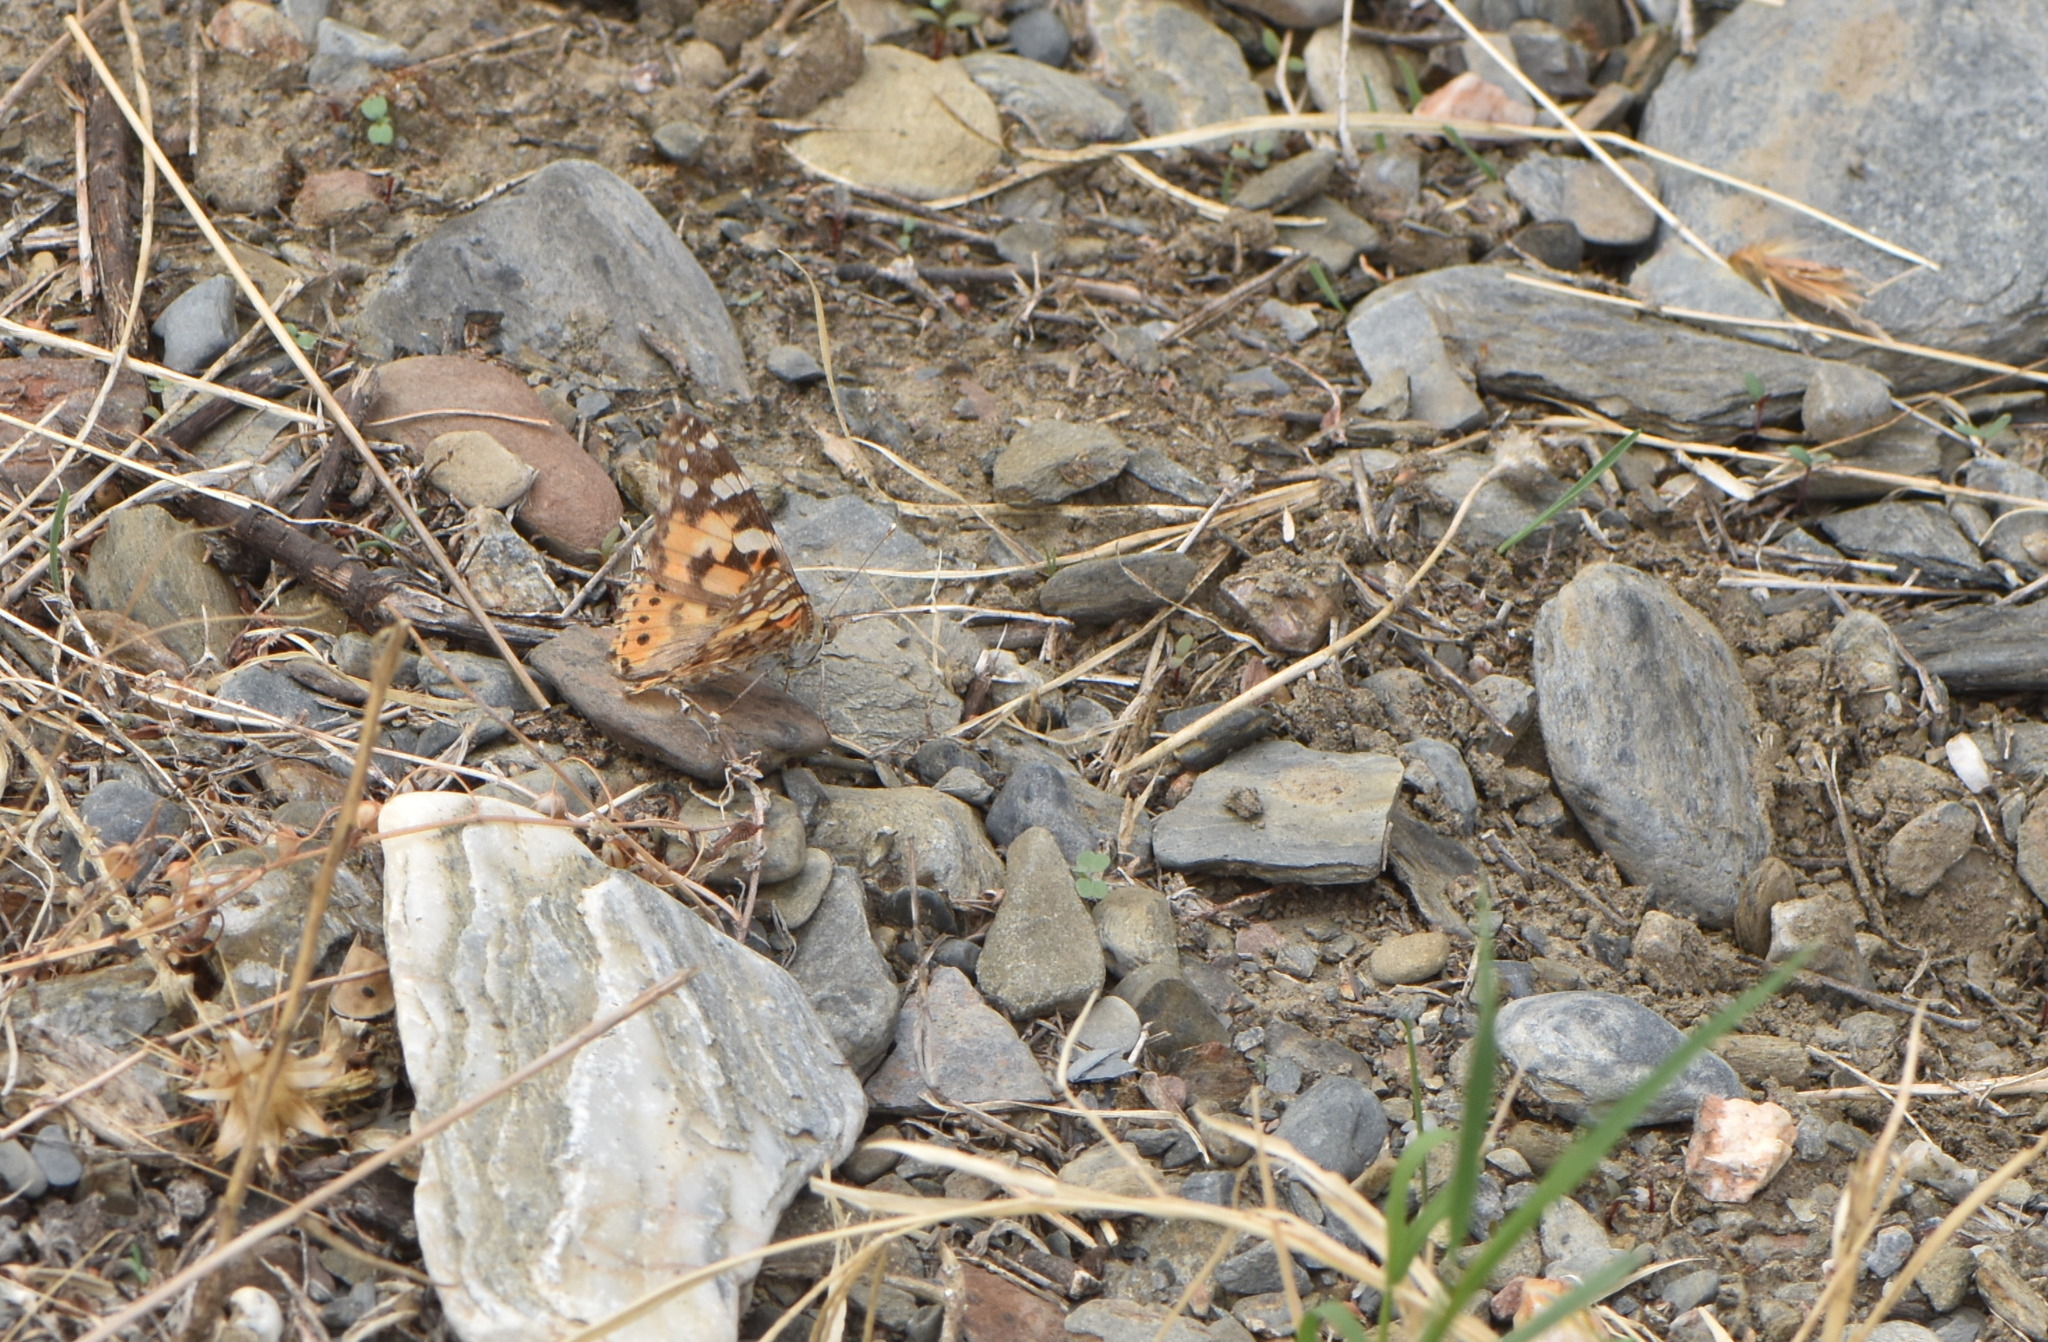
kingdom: Animalia
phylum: Arthropoda
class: Insecta
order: Lepidoptera
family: Nymphalidae
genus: Vanessa
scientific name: Vanessa cardui
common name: Painted lady
